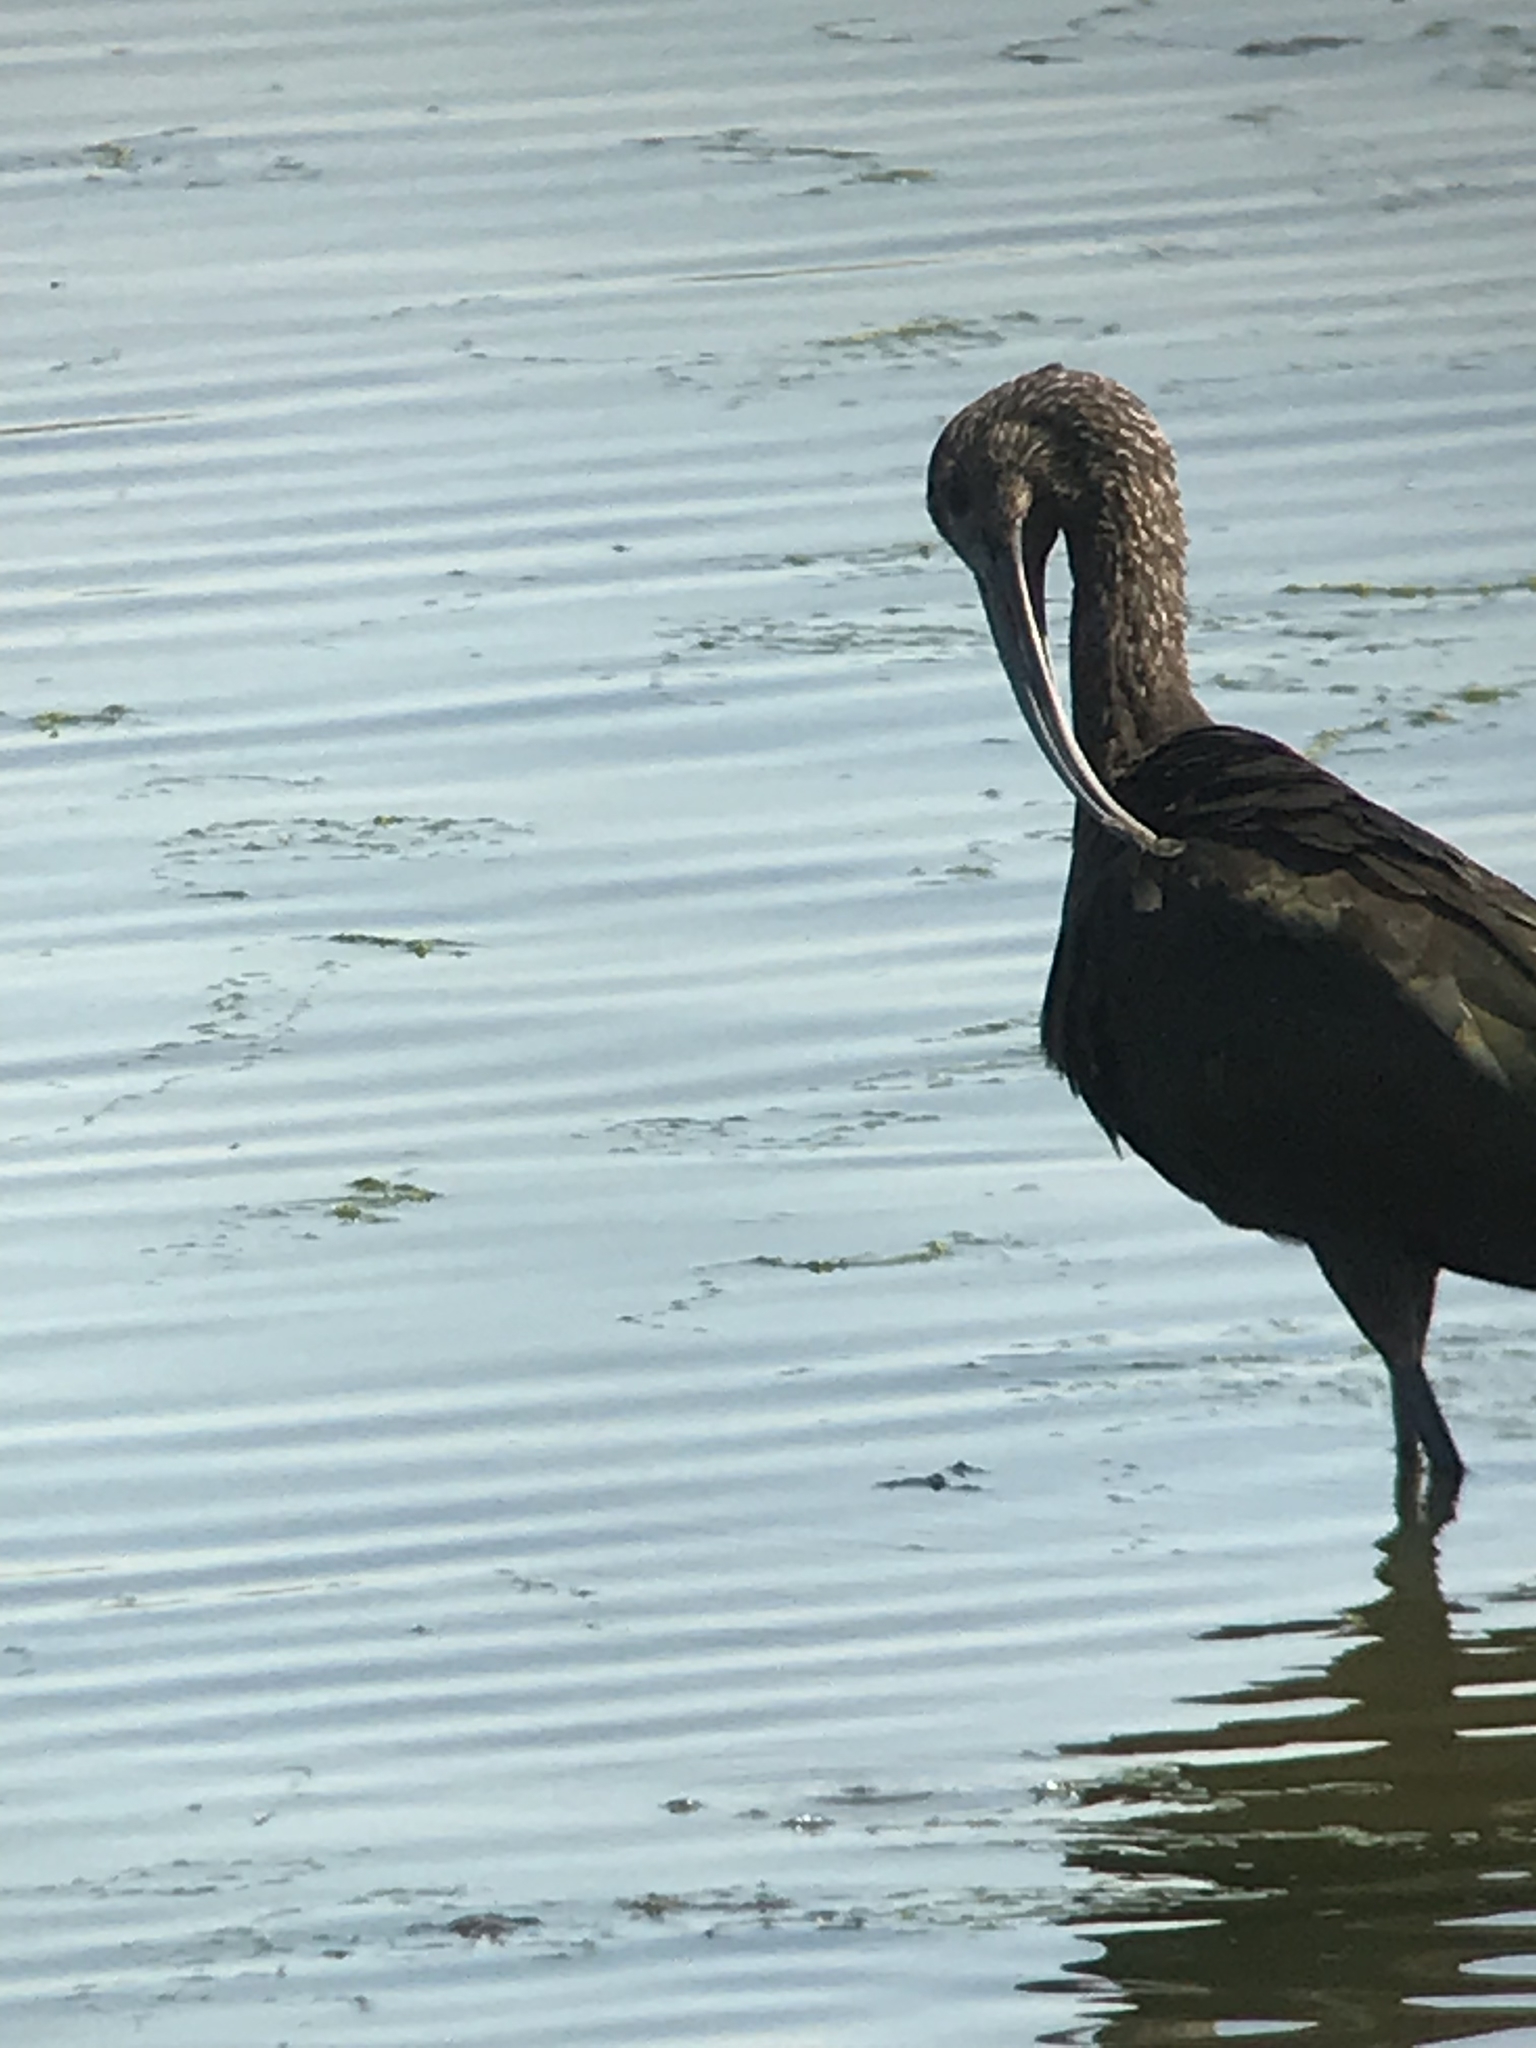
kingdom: Animalia
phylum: Chordata
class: Aves
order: Pelecaniformes
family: Threskiornithidae
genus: Plegadis
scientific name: Plegadis chihi
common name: White-faced ibis
